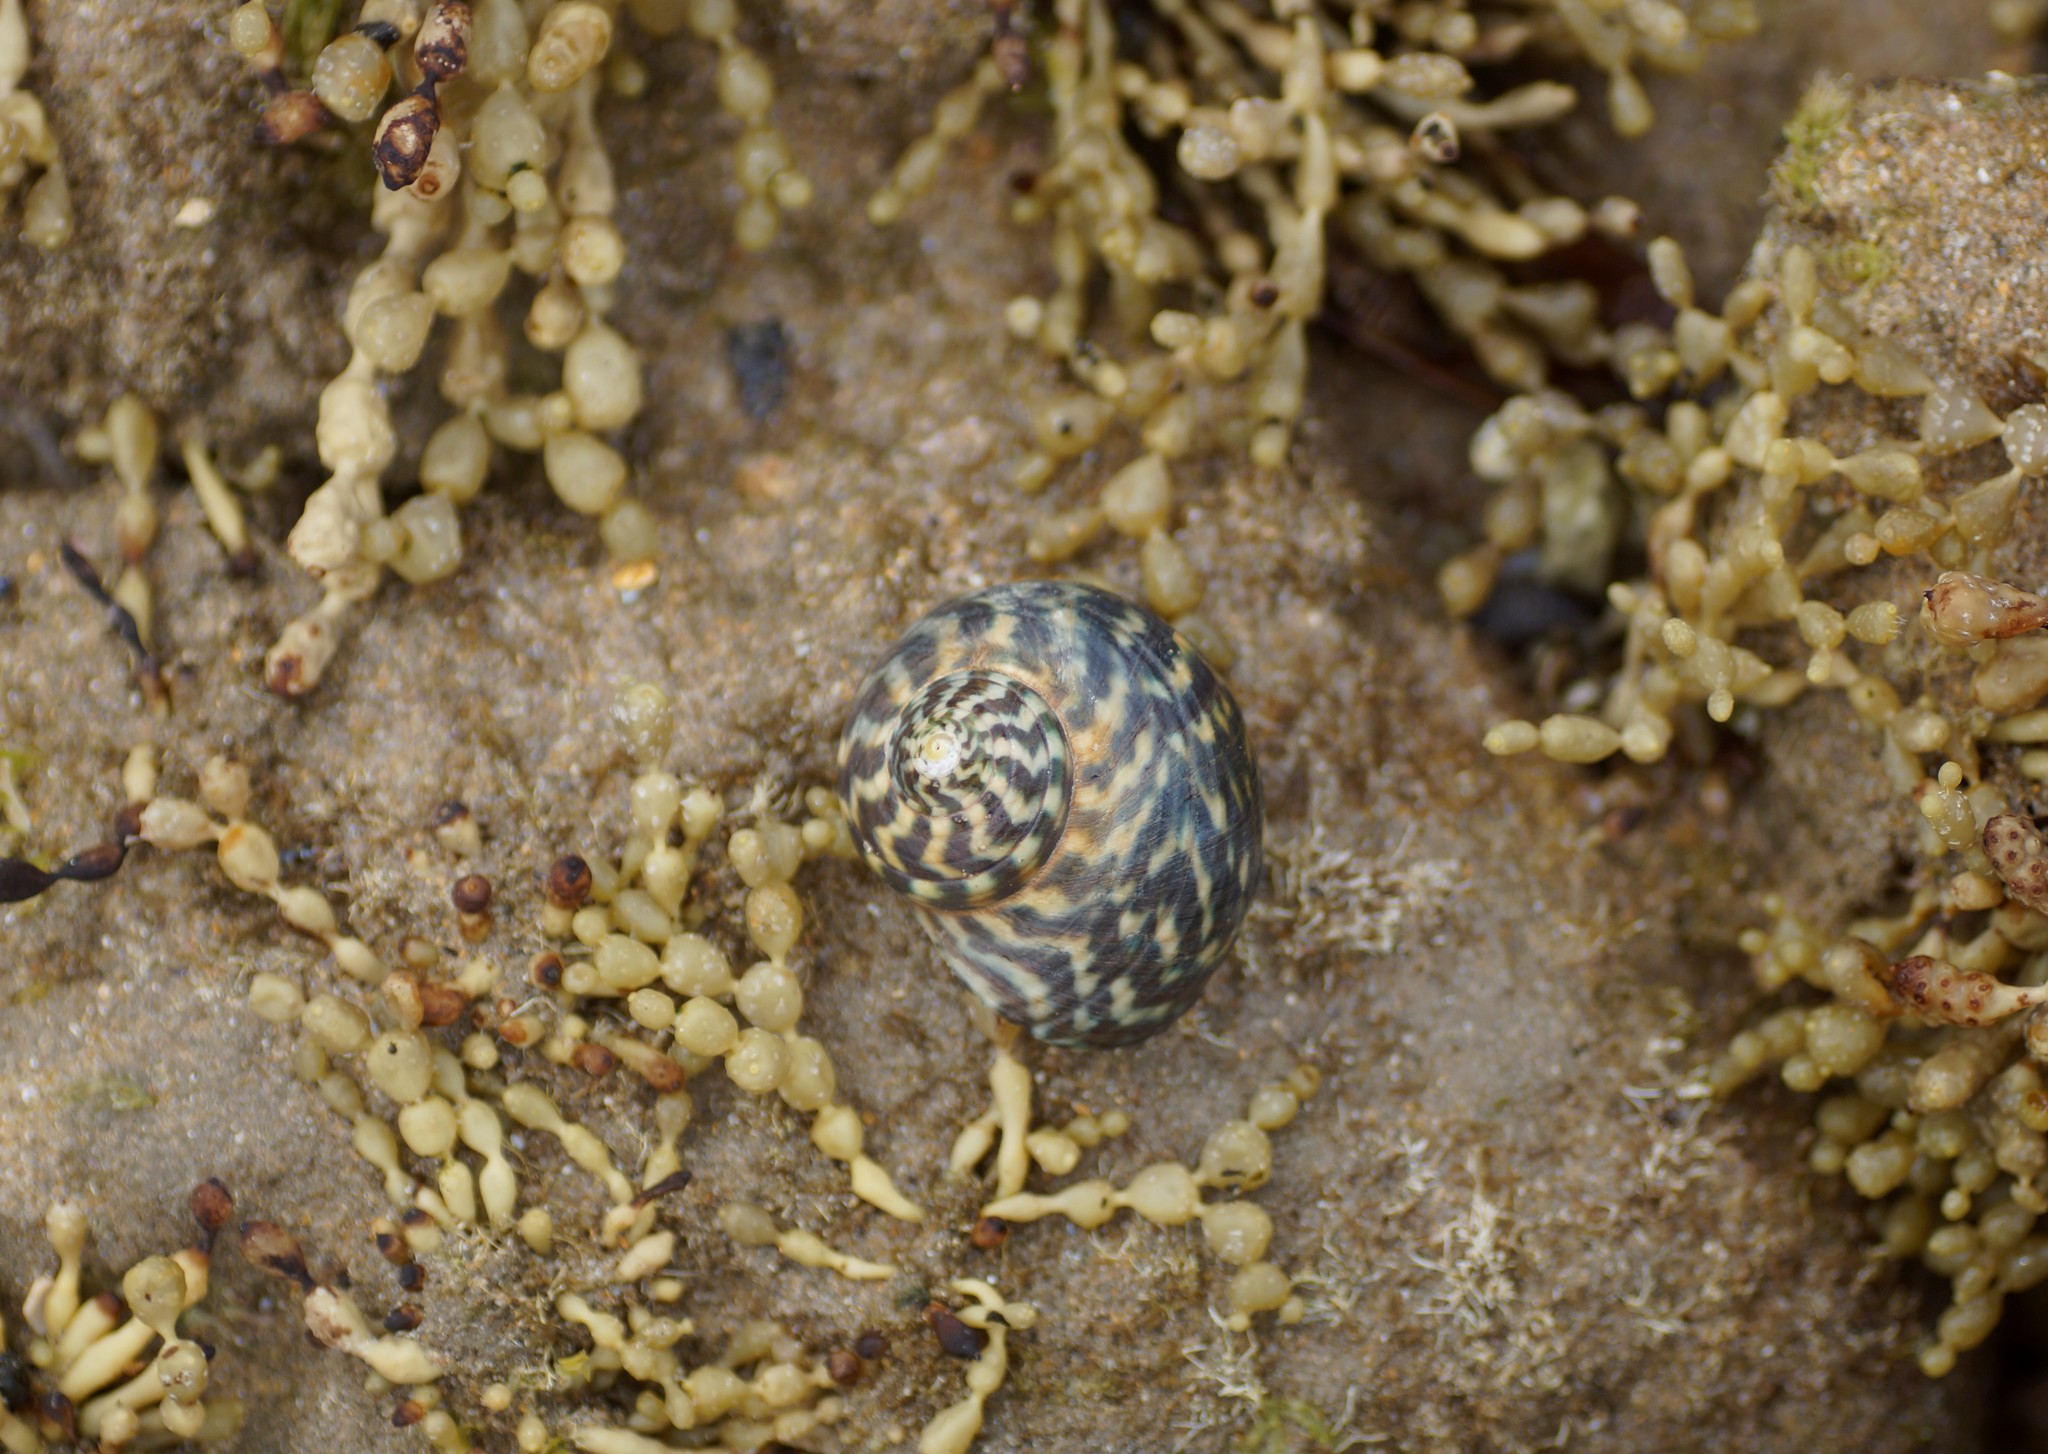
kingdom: Animalia
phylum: Mollusca
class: Gastropoda
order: Trochida
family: Turbinidae
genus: Lunella
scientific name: Lunella undulata
